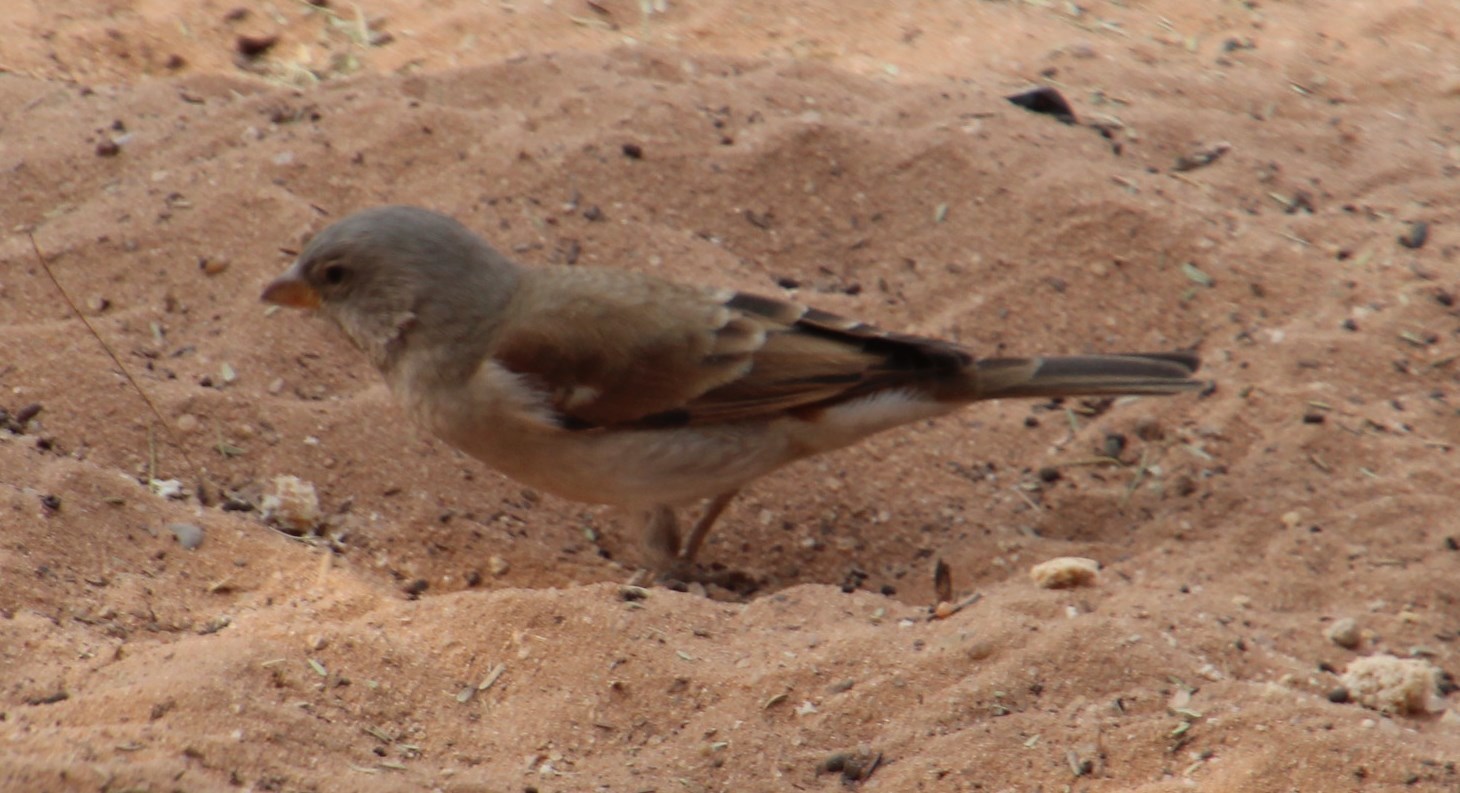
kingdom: Animalia
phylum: Chordata
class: Aves
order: Passeriformes
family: Passeridae
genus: Passer
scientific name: Passer diffusus
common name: Southern grey-headed sparrow
